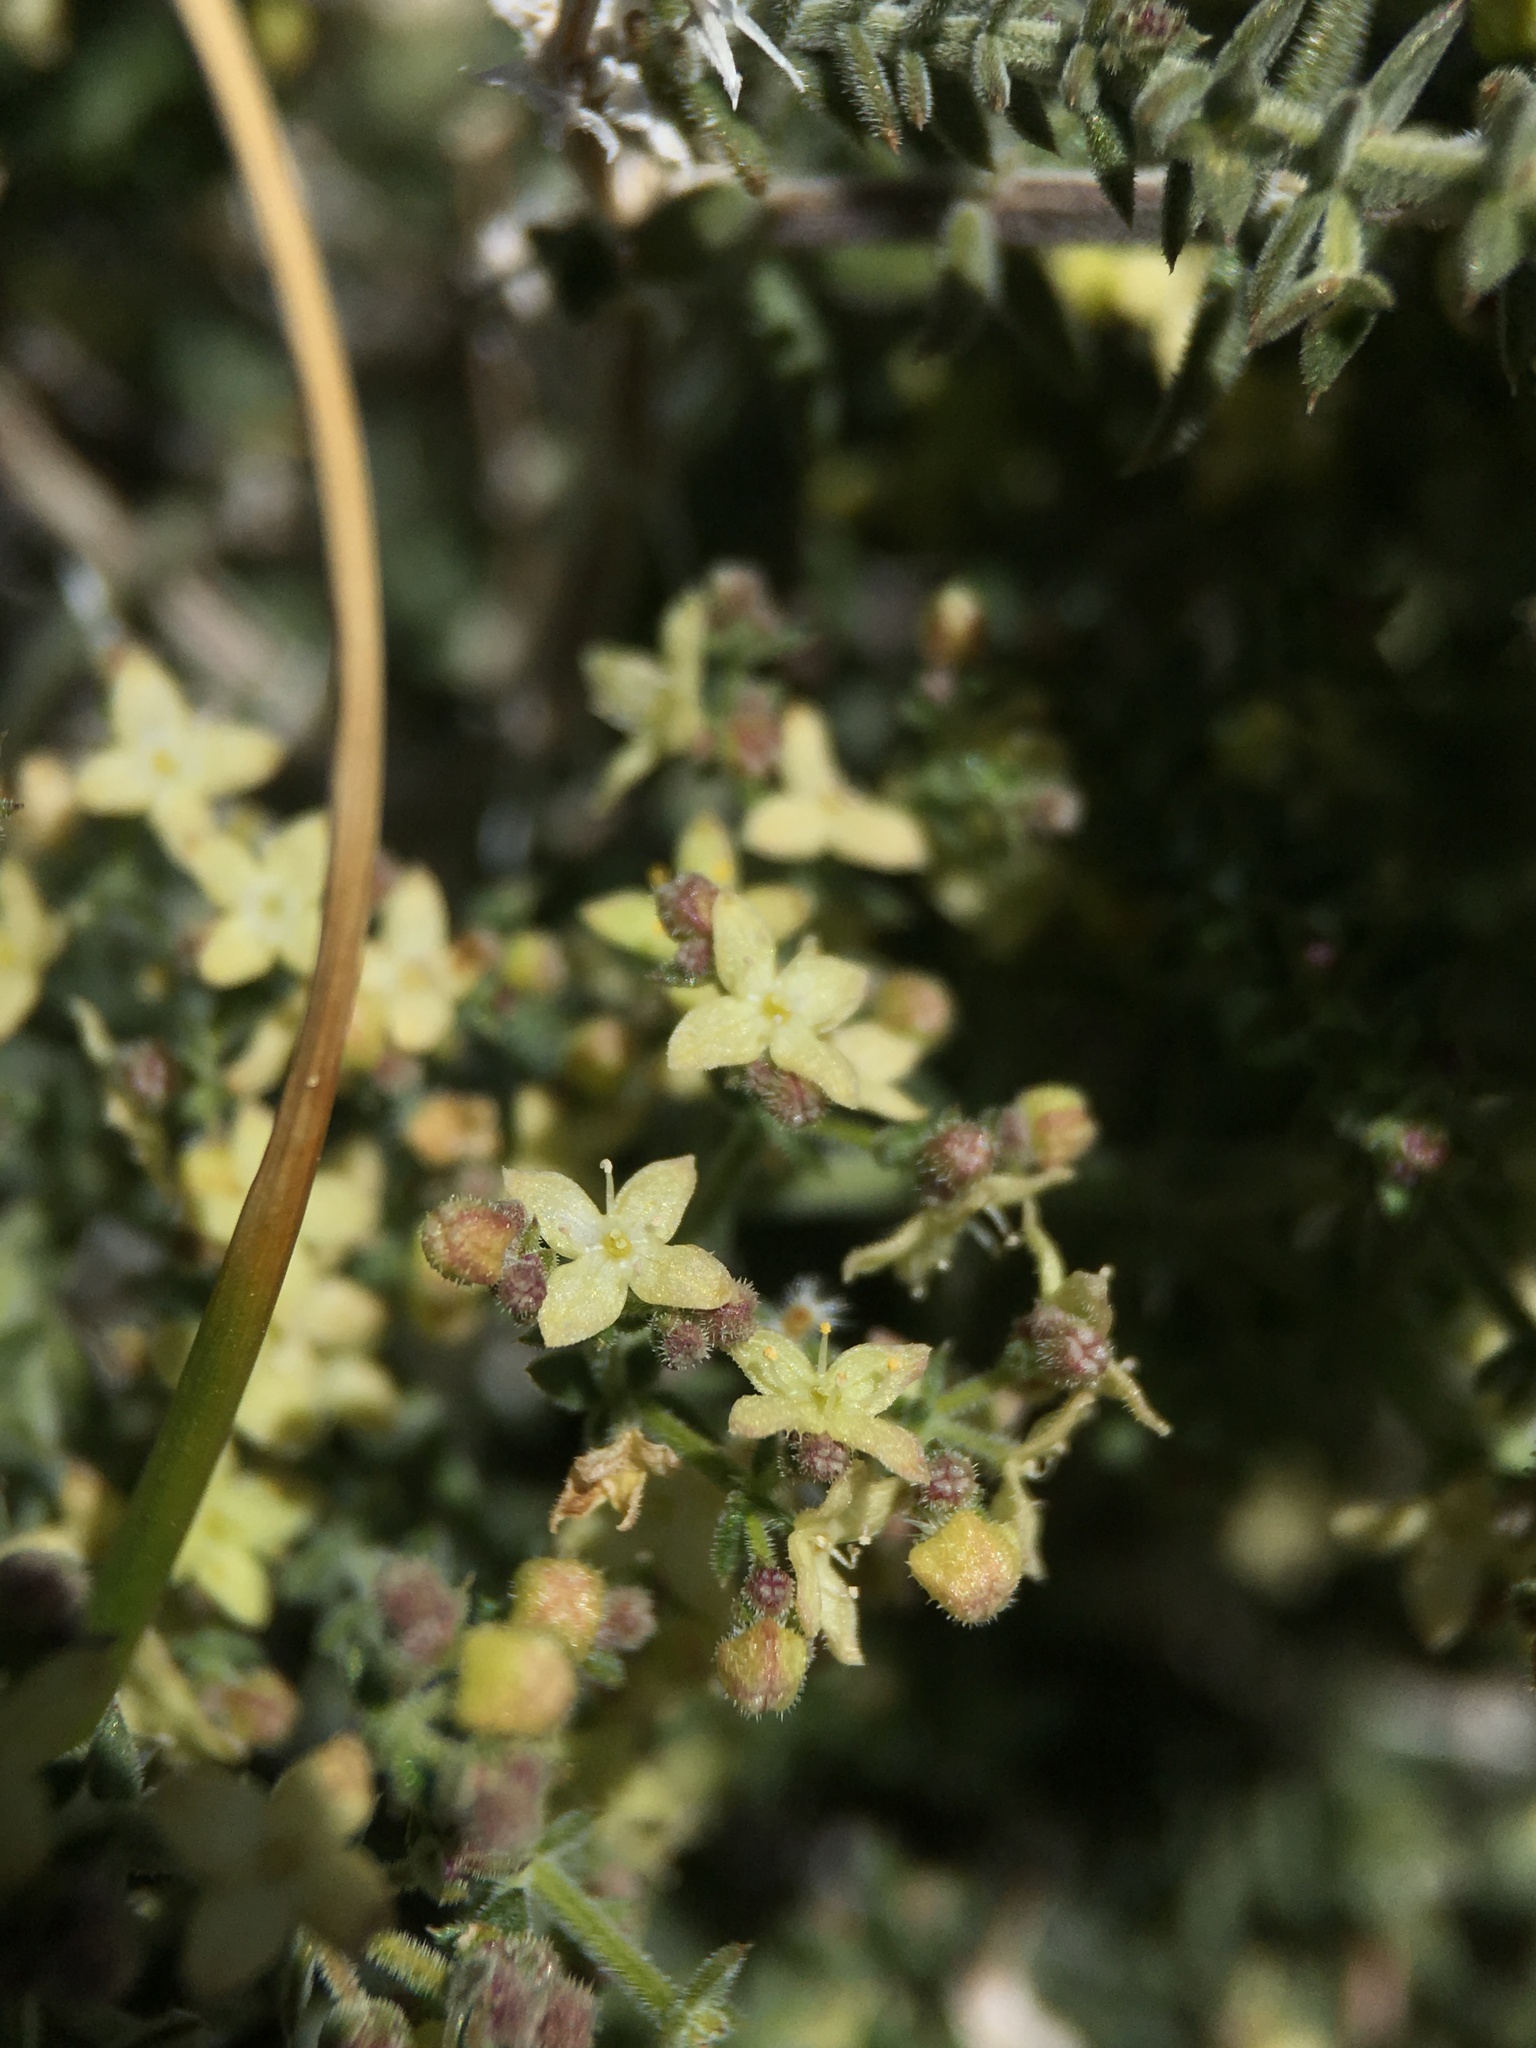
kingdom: Plantae
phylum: Tracheophyta
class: Magnoliopsida
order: Gentianales
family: Rubiaceae
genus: Galium
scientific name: Galium stellatum
